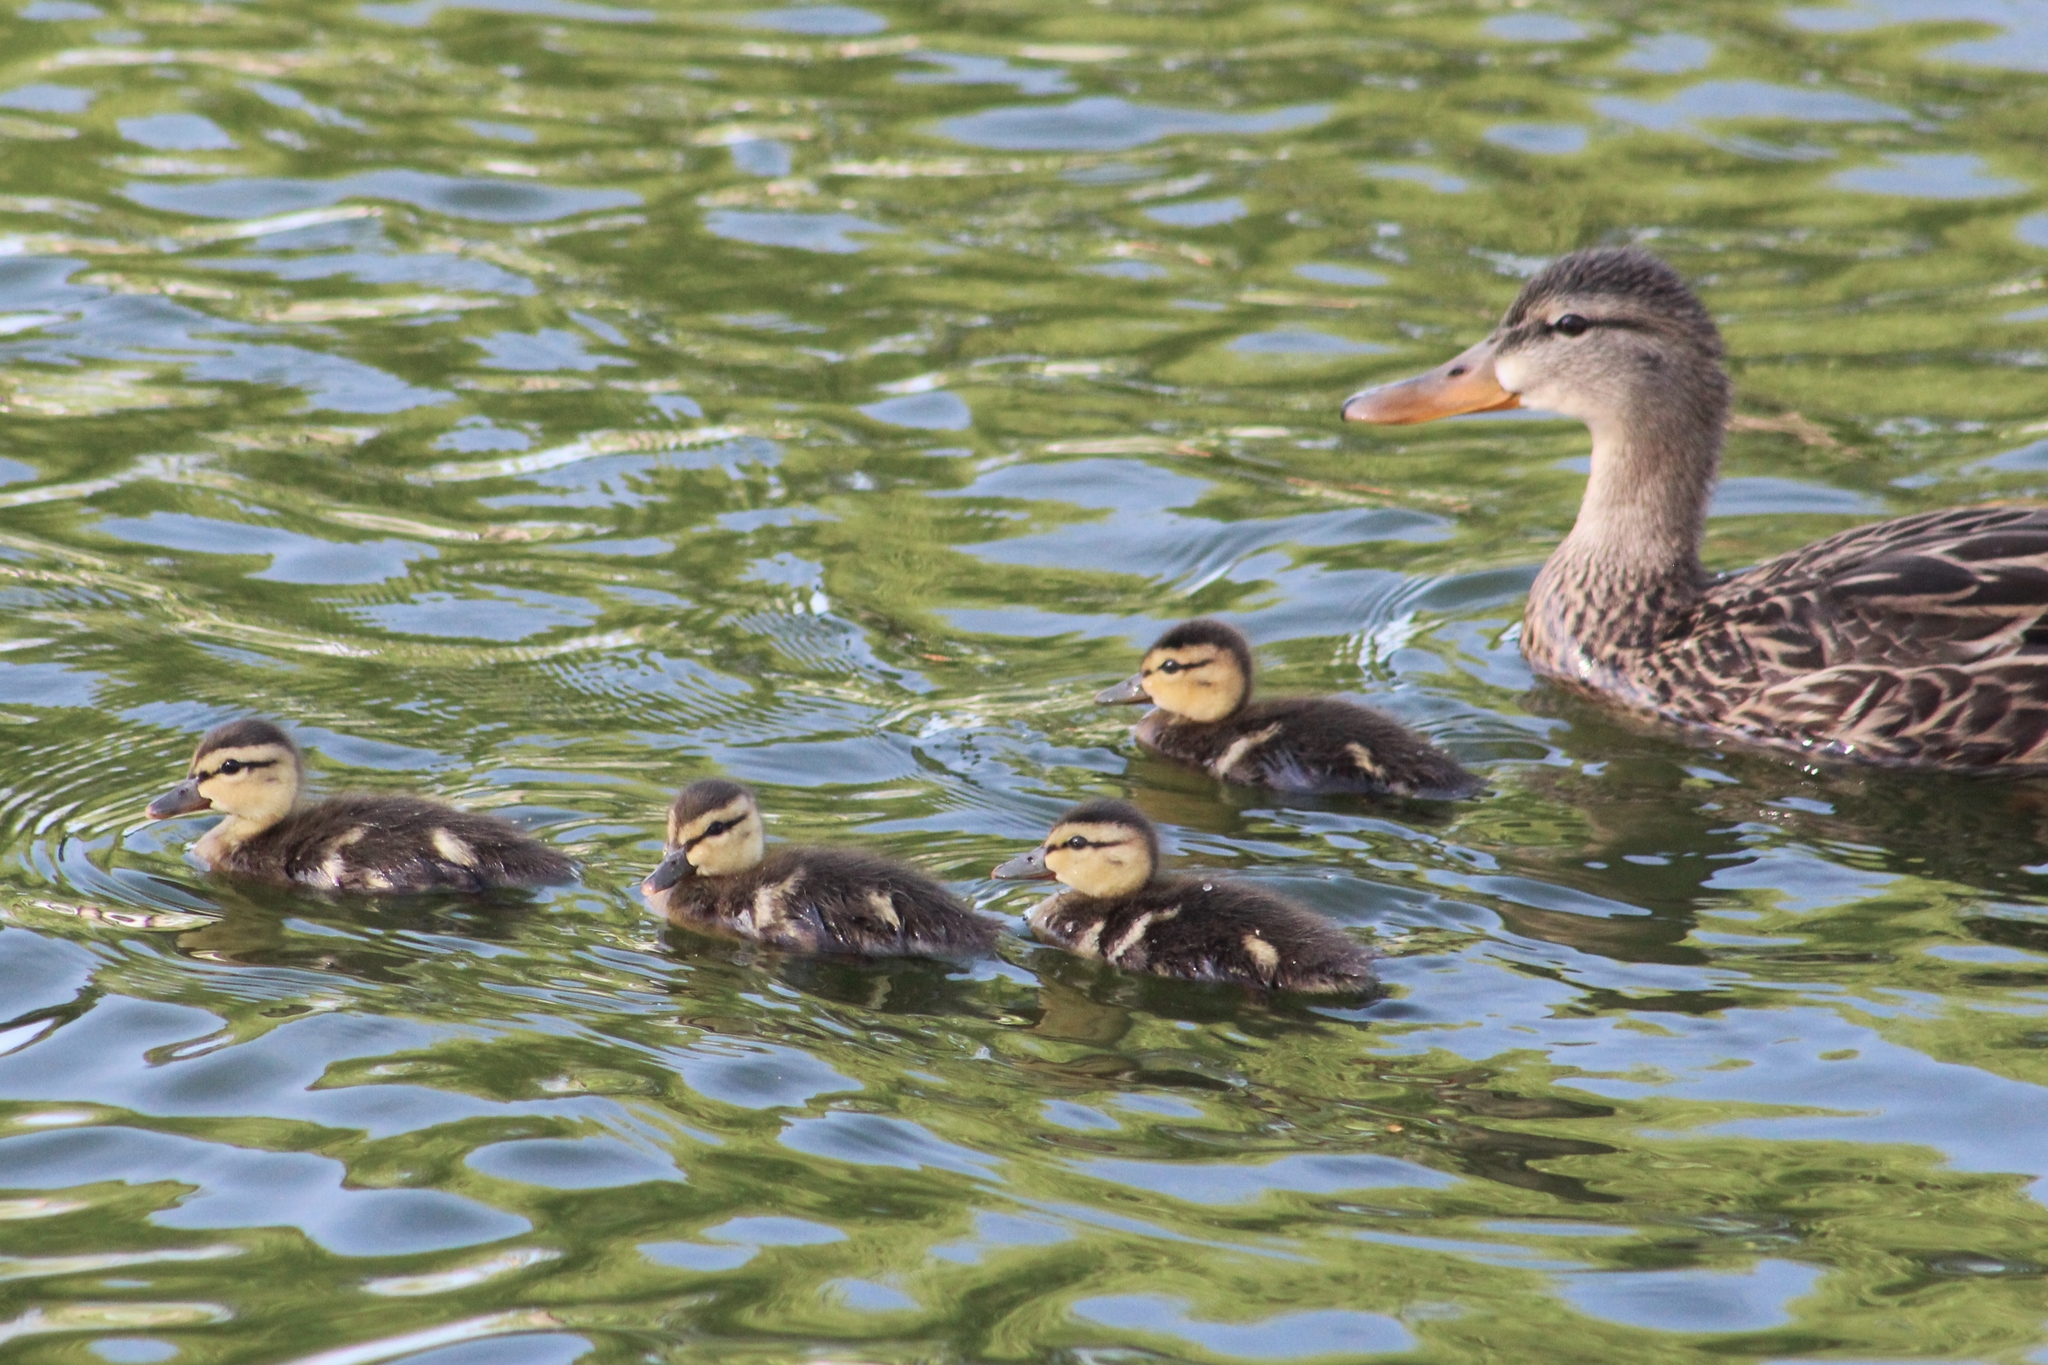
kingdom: Animalia
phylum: Chordata
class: Aves
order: Anseriformes
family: Anatidae
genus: Anas
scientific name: Anas diazi
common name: Mexican duck
